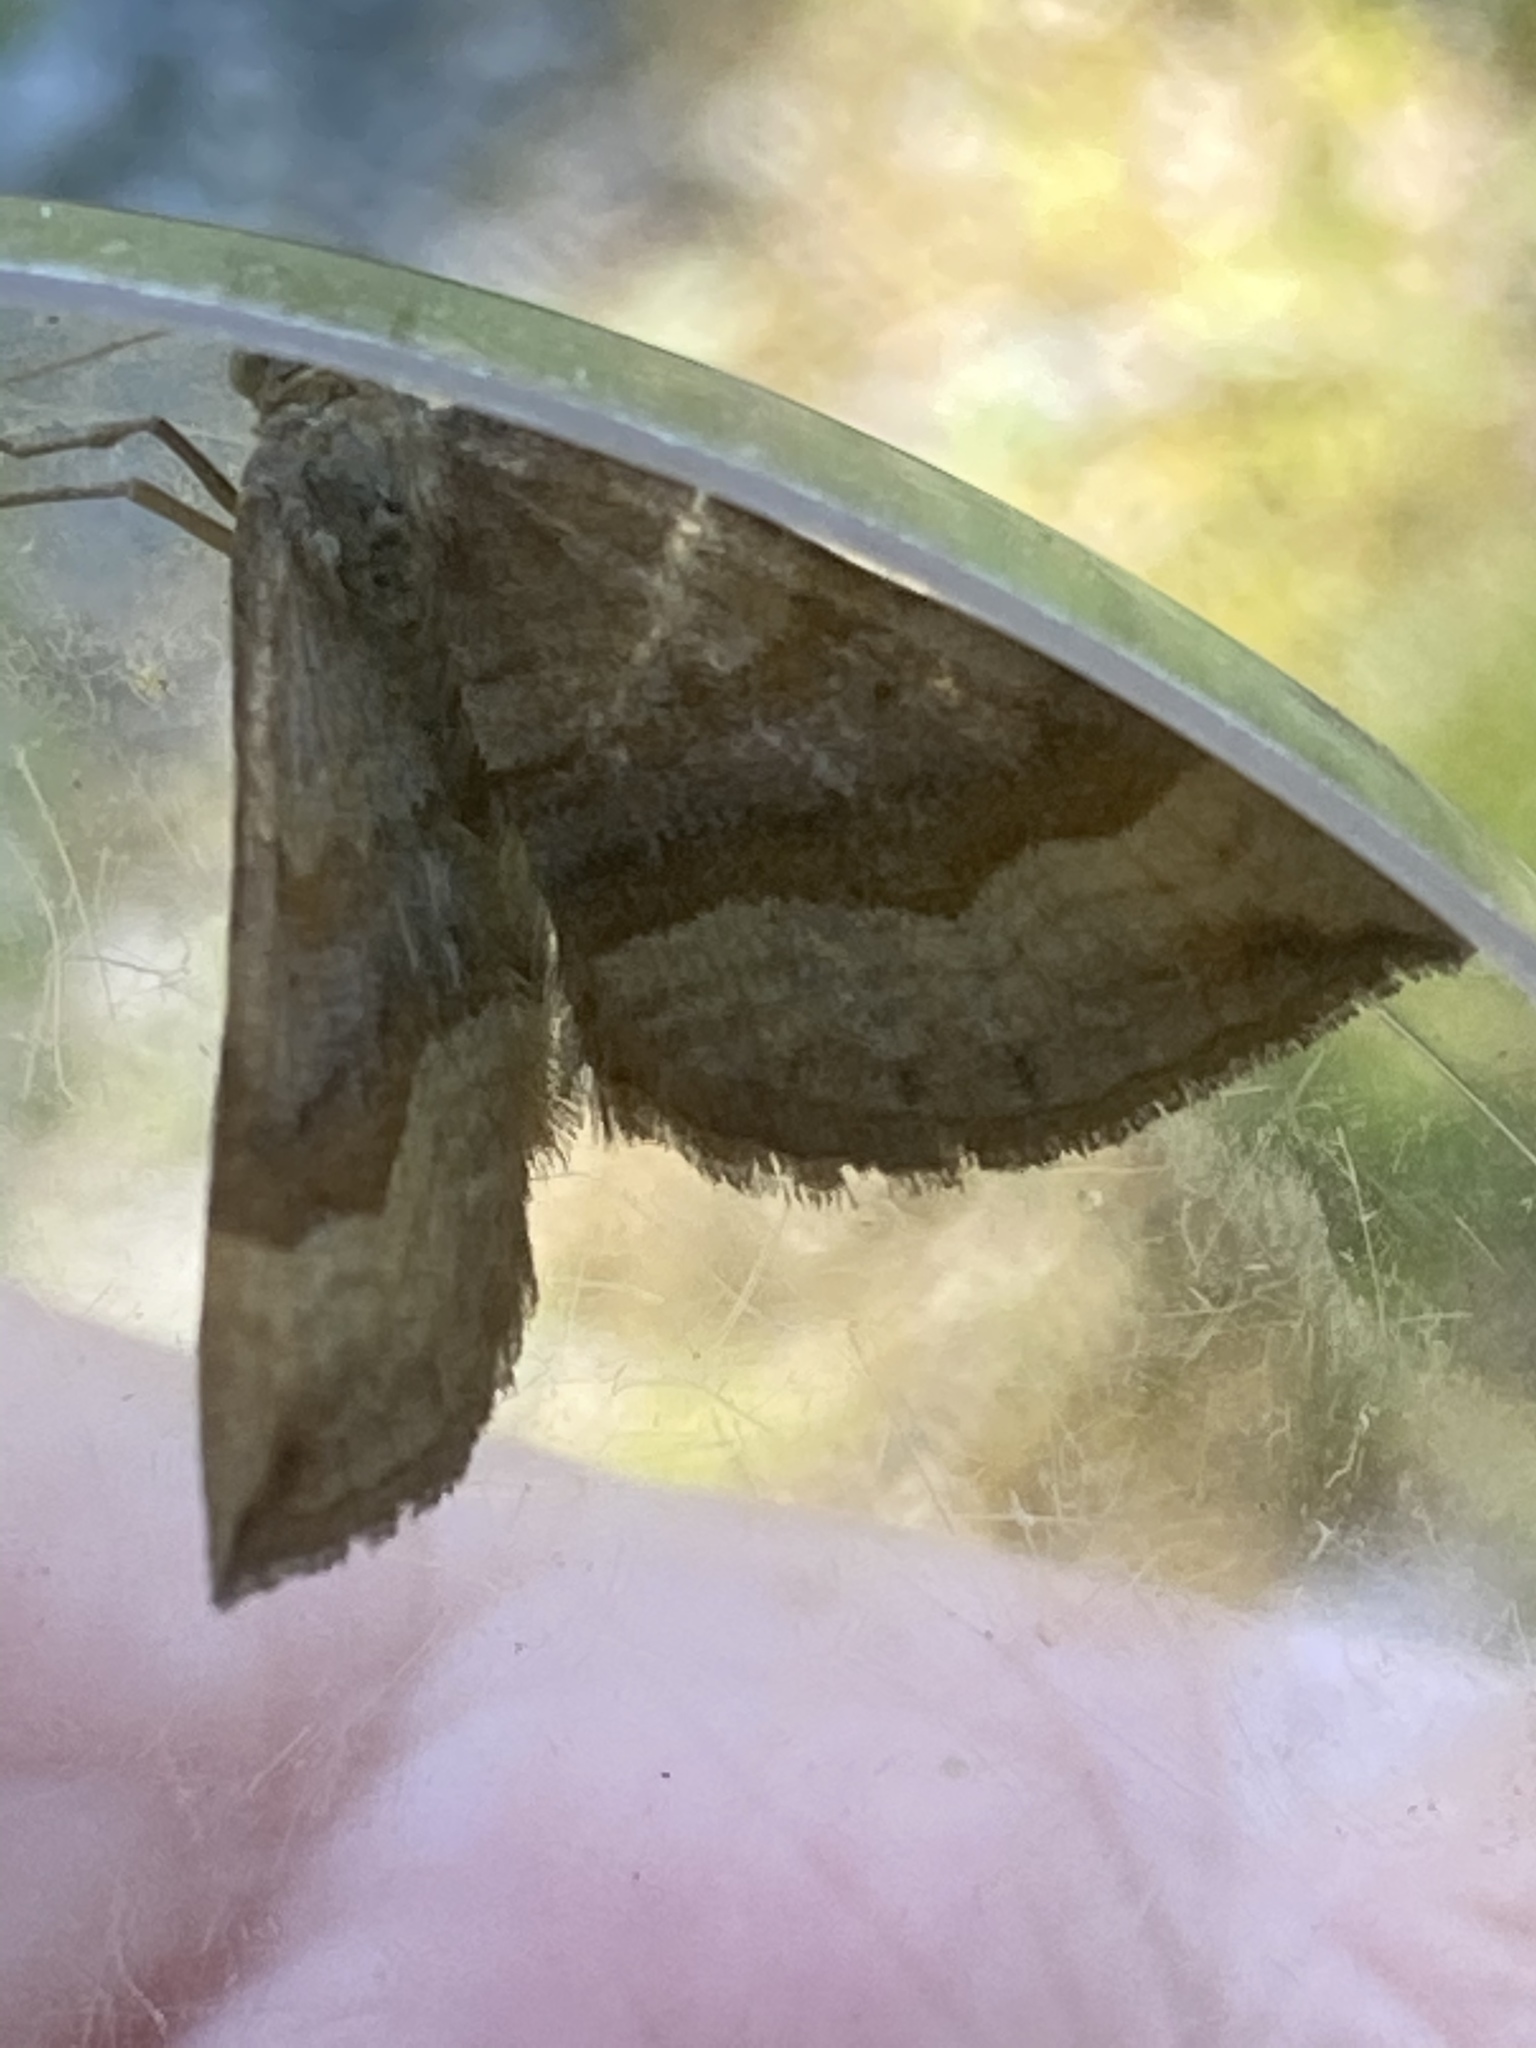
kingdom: Animalia
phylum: Arthropoda
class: Insecta
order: Lepidoptera
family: Geometridae
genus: Scotopteryx
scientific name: Scotopteryx chenopodiata
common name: Shaded broad-bar
